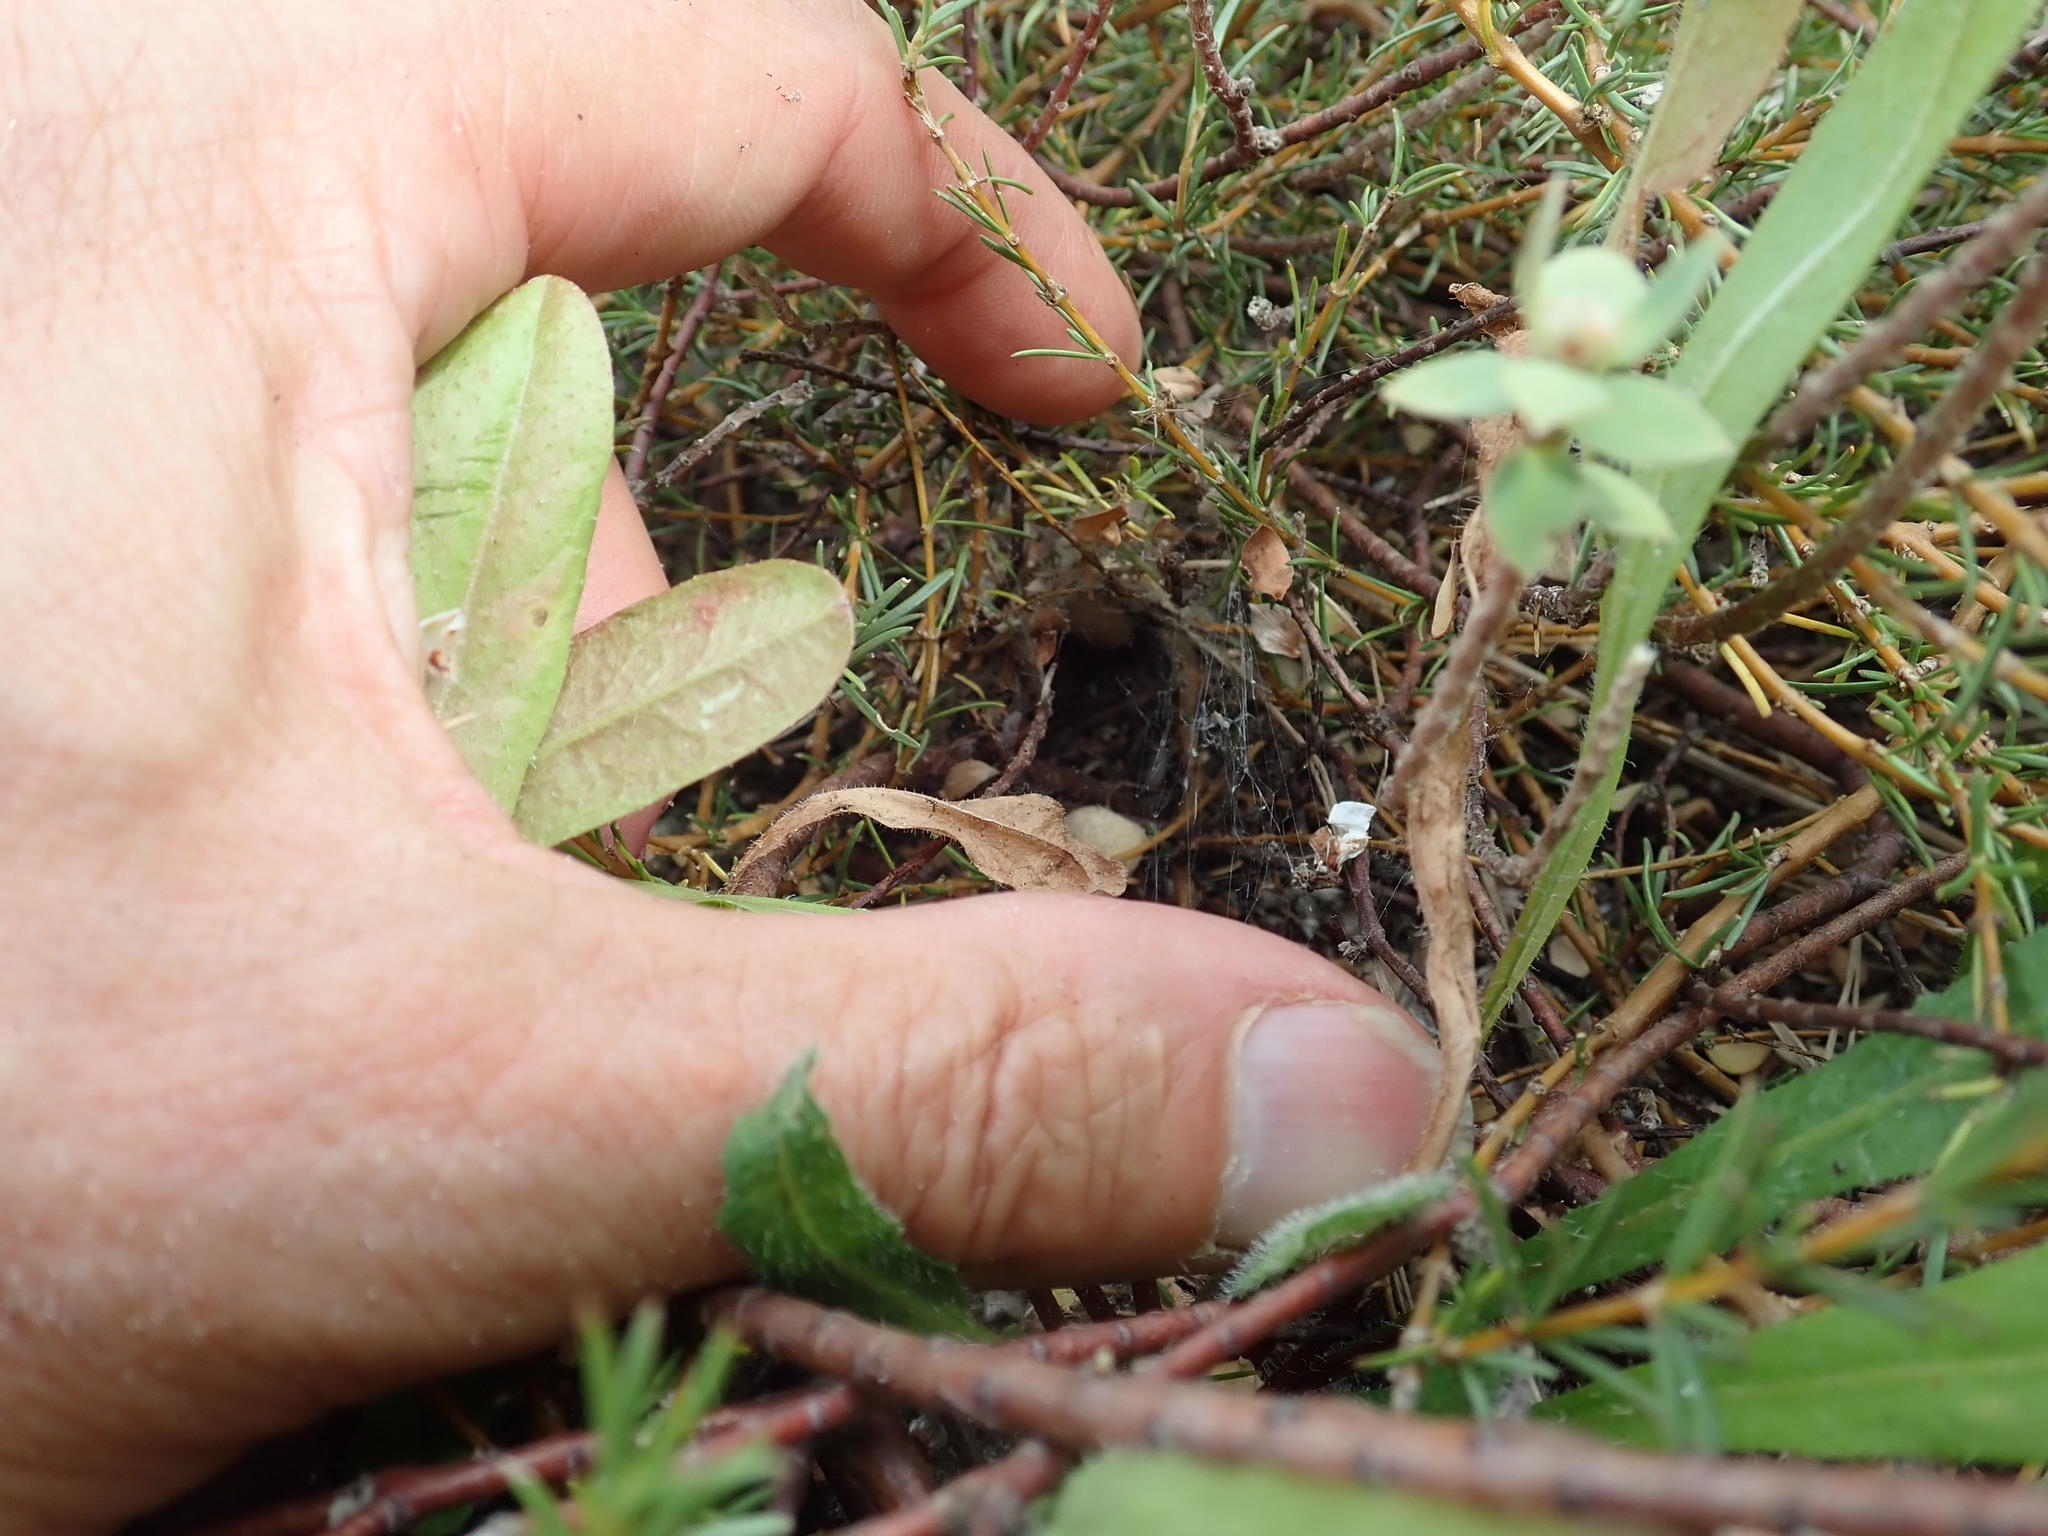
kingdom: Plantae
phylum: Tracheophyta
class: Magnoliopsida
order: Malvales
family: Thymelaeaceae
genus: Pimelea
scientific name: Pimelea villosa
